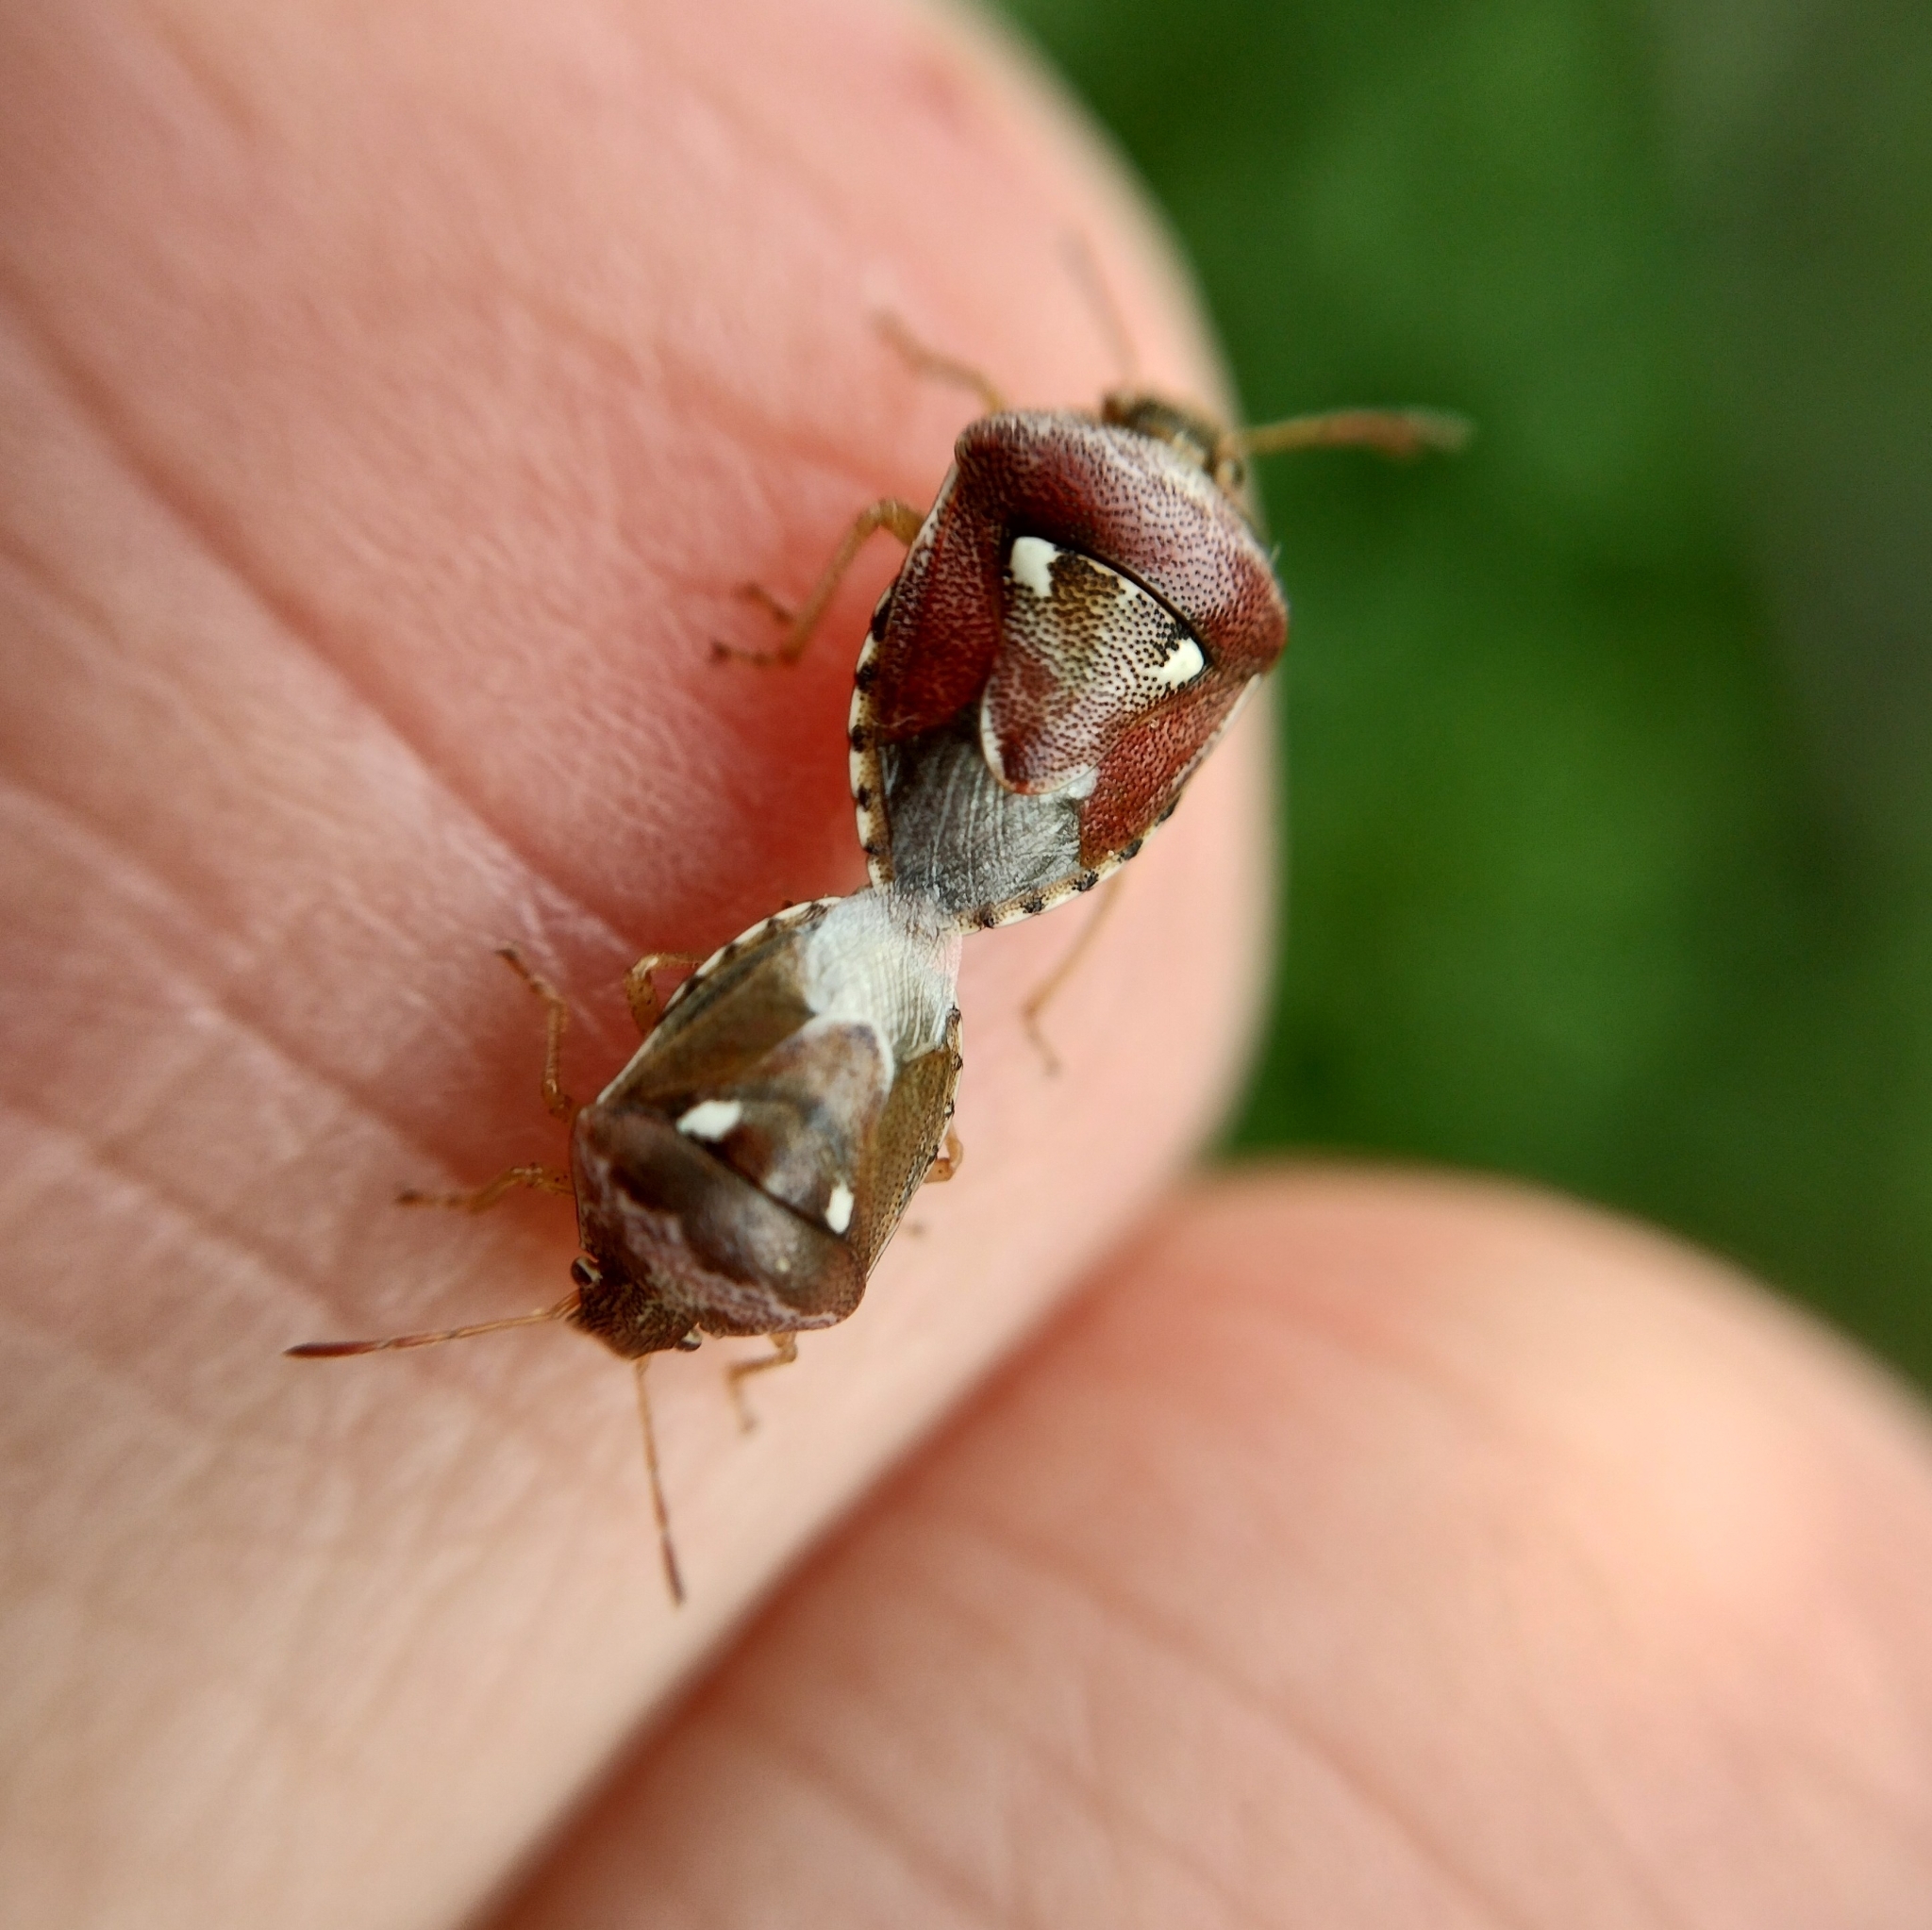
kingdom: Animalia
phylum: Arthropoda
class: Insecta
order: Hemiptera
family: Pentatomidae
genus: Stagonomus
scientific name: Stagonomus bipunctatus
